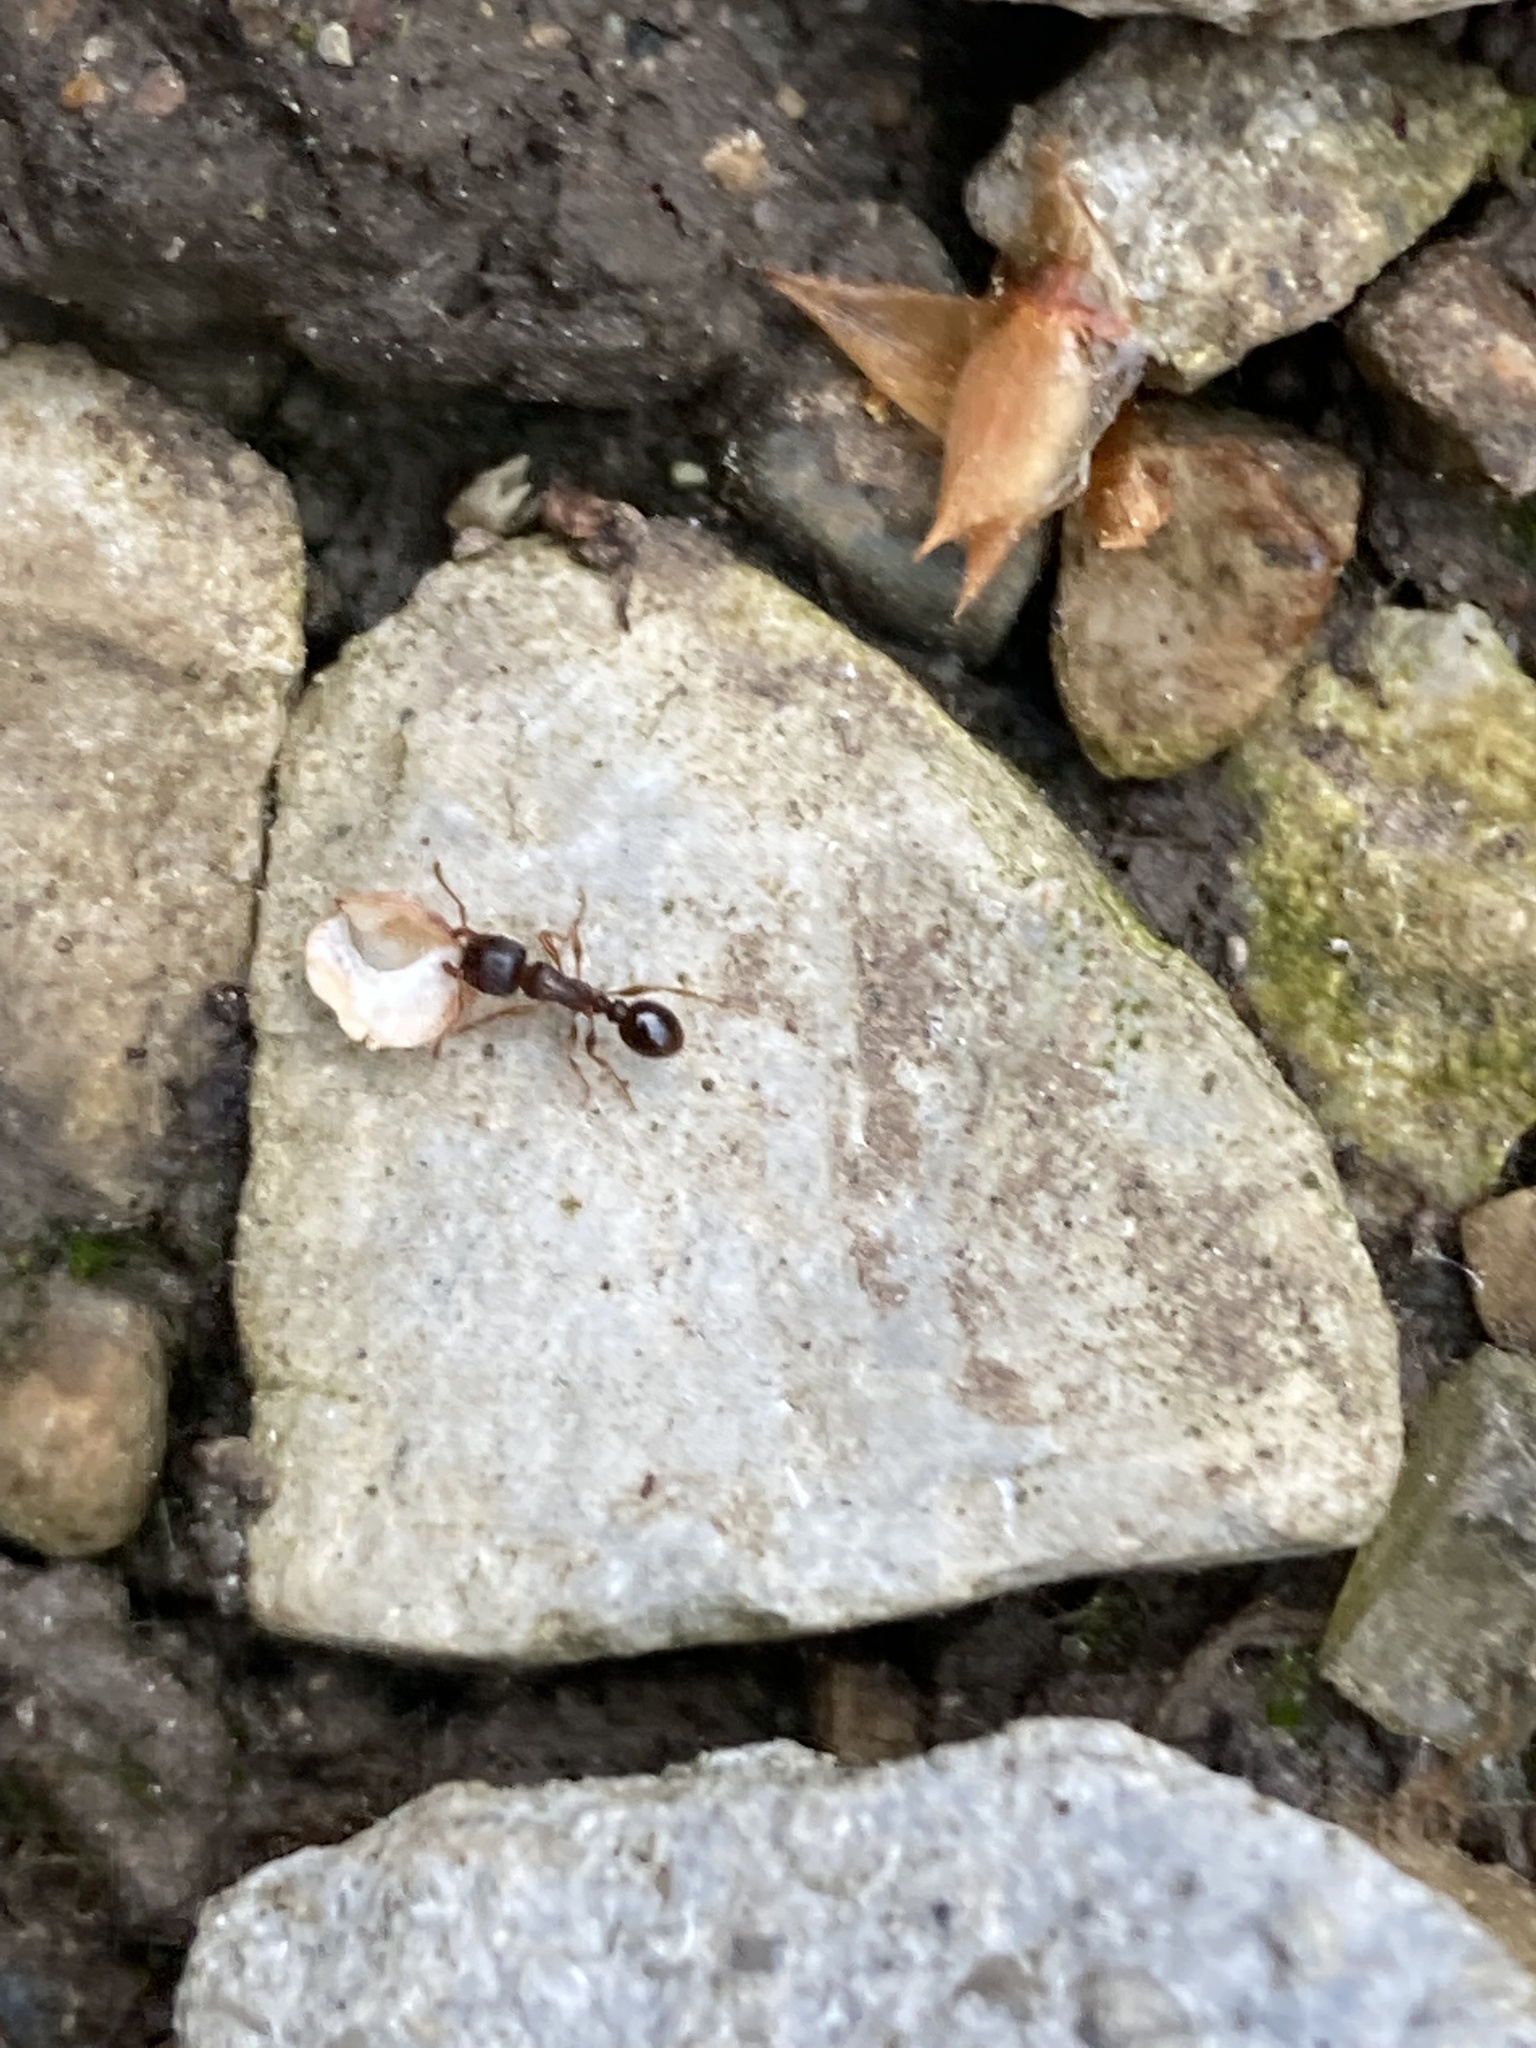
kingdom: Animalia
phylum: Arthropoda
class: Insecta
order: Hymenoptera
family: Formicidae
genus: Tetramorium
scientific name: Tetramorium immigrans
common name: Pavement ant
